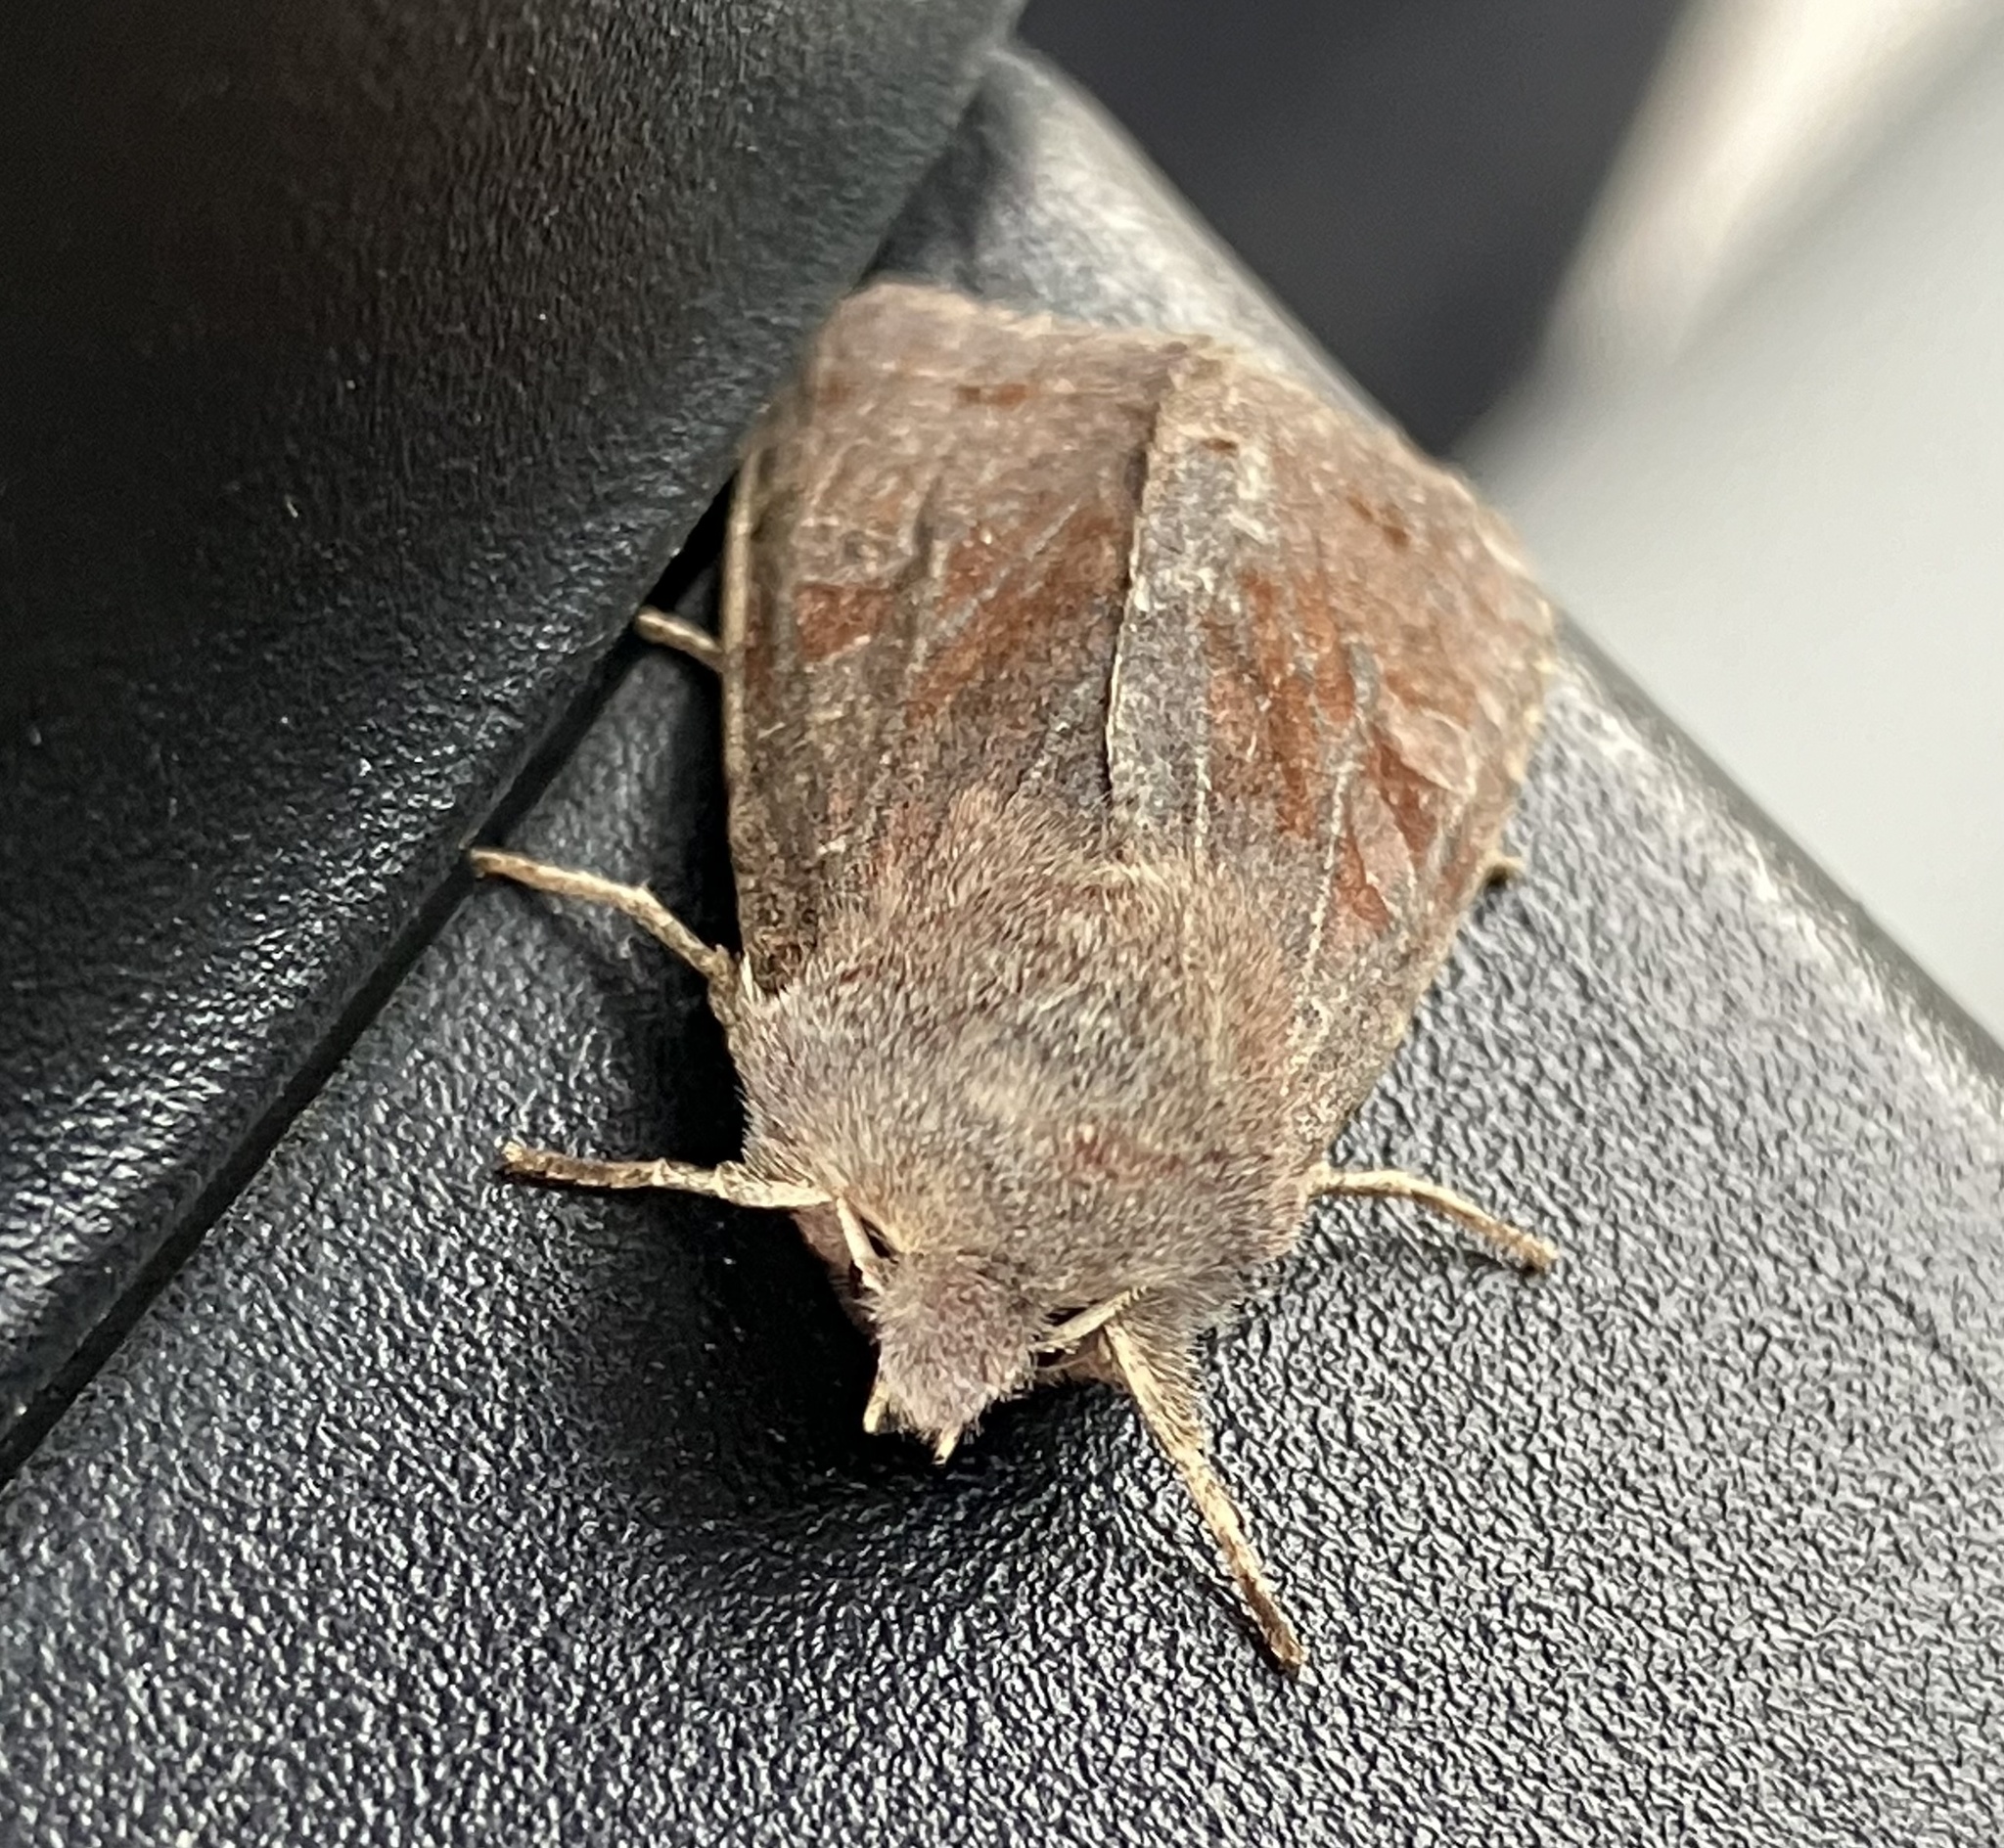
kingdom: Animalia
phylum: Arthropoda
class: Insecta
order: Lepidoptera
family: Noctuidae
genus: Orthosia
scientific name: Orthosia incerta
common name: Clouded drab
